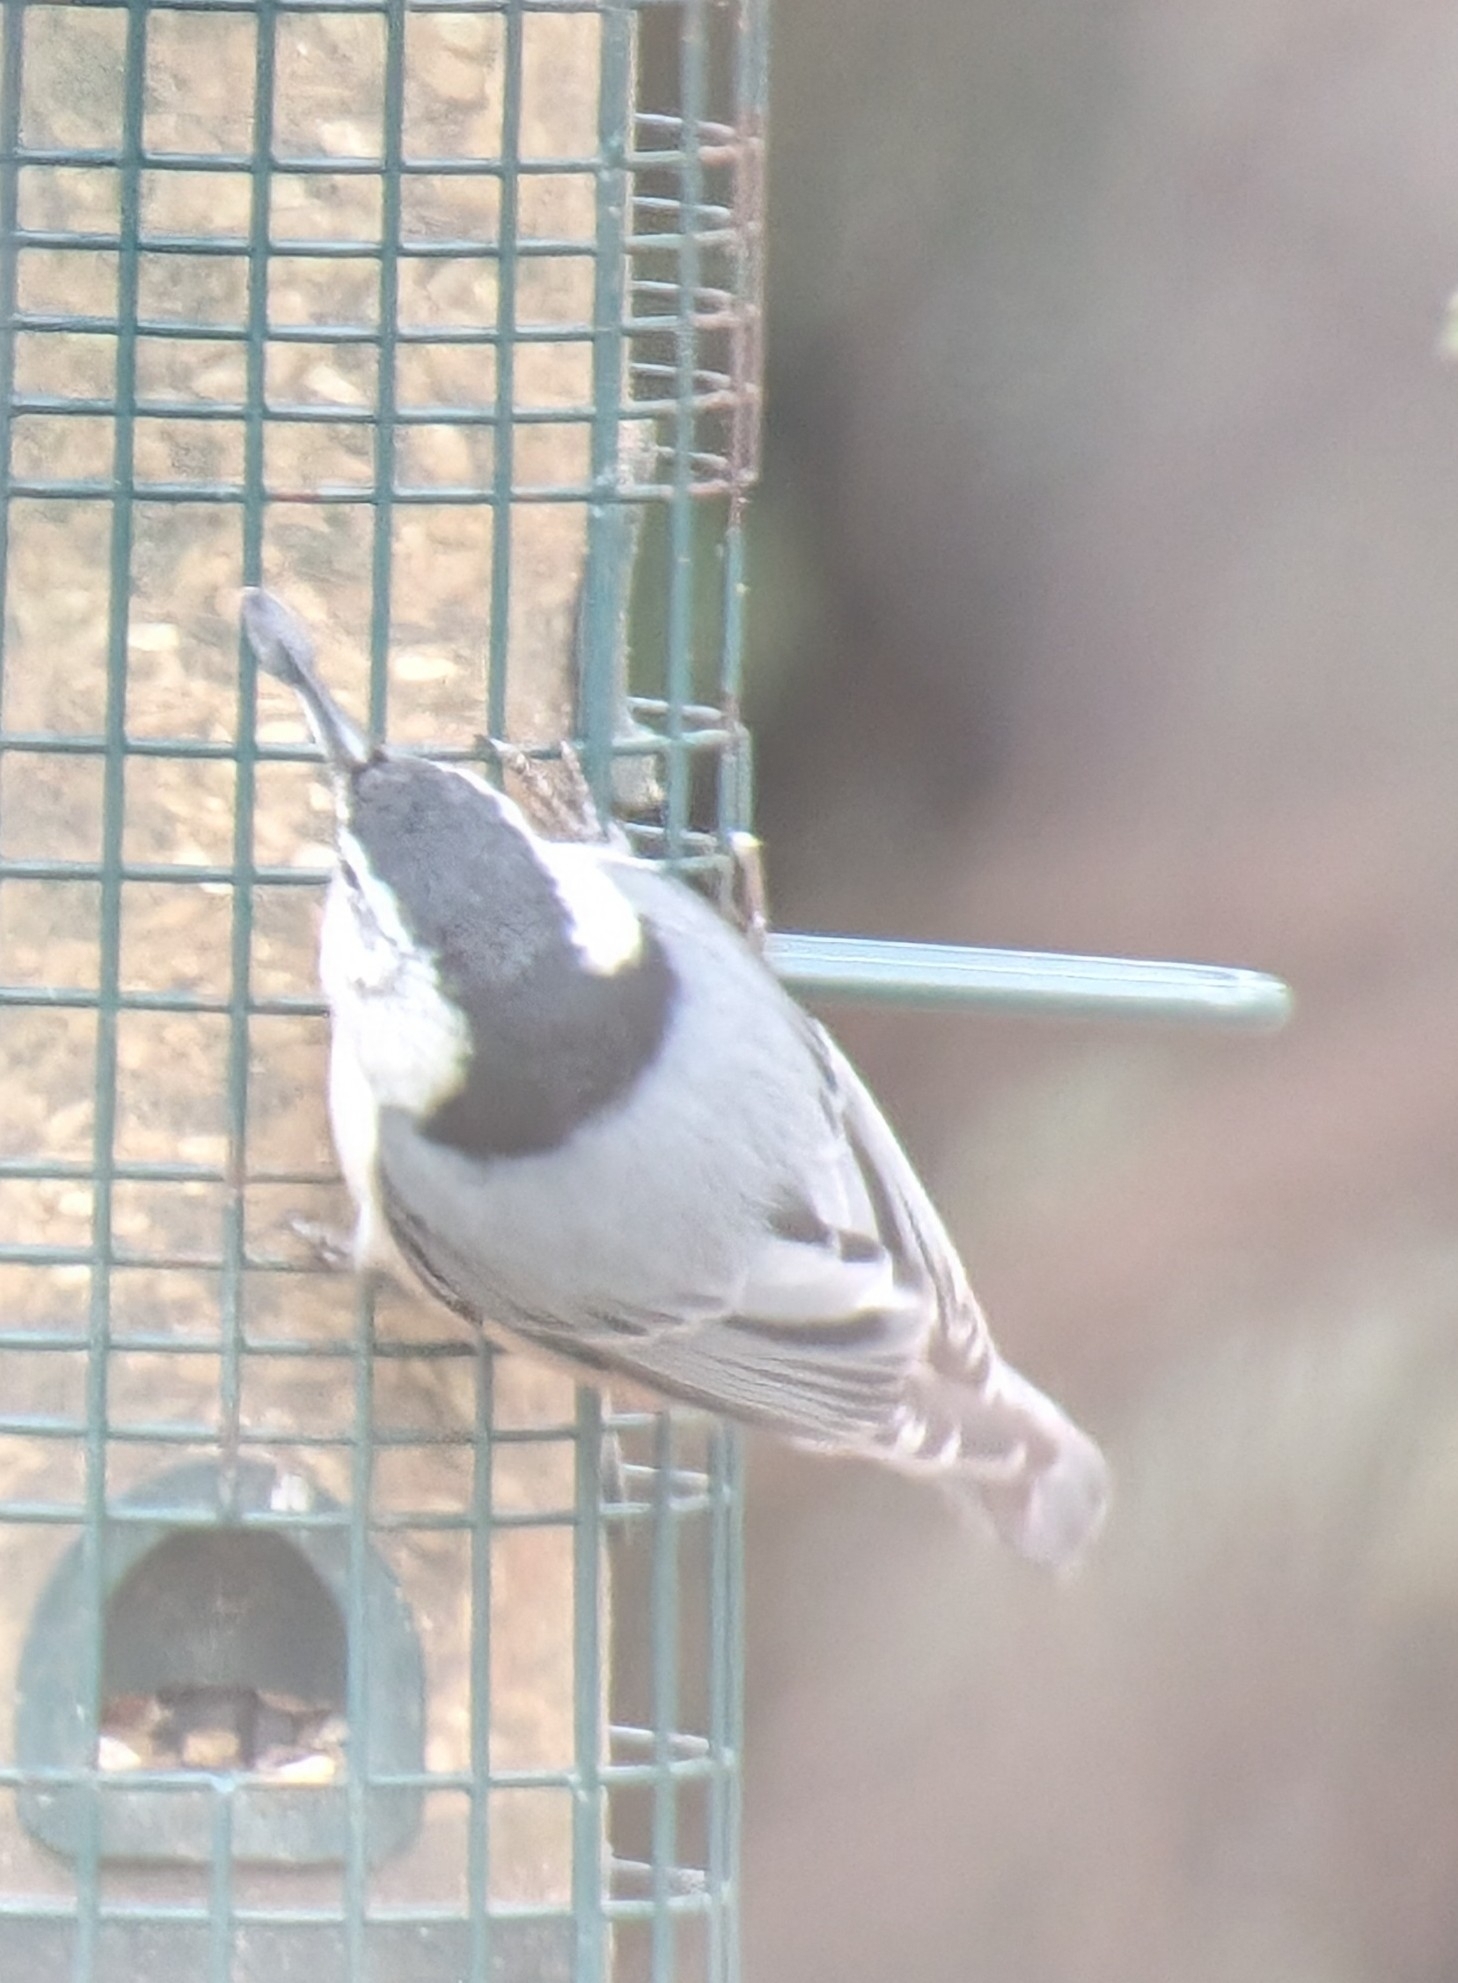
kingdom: Animalia
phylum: Chordata
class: Aves
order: Passeriformes
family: Sittidae
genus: Sitta
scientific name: Sitta carolinensis
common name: White-breasted nuthatch
